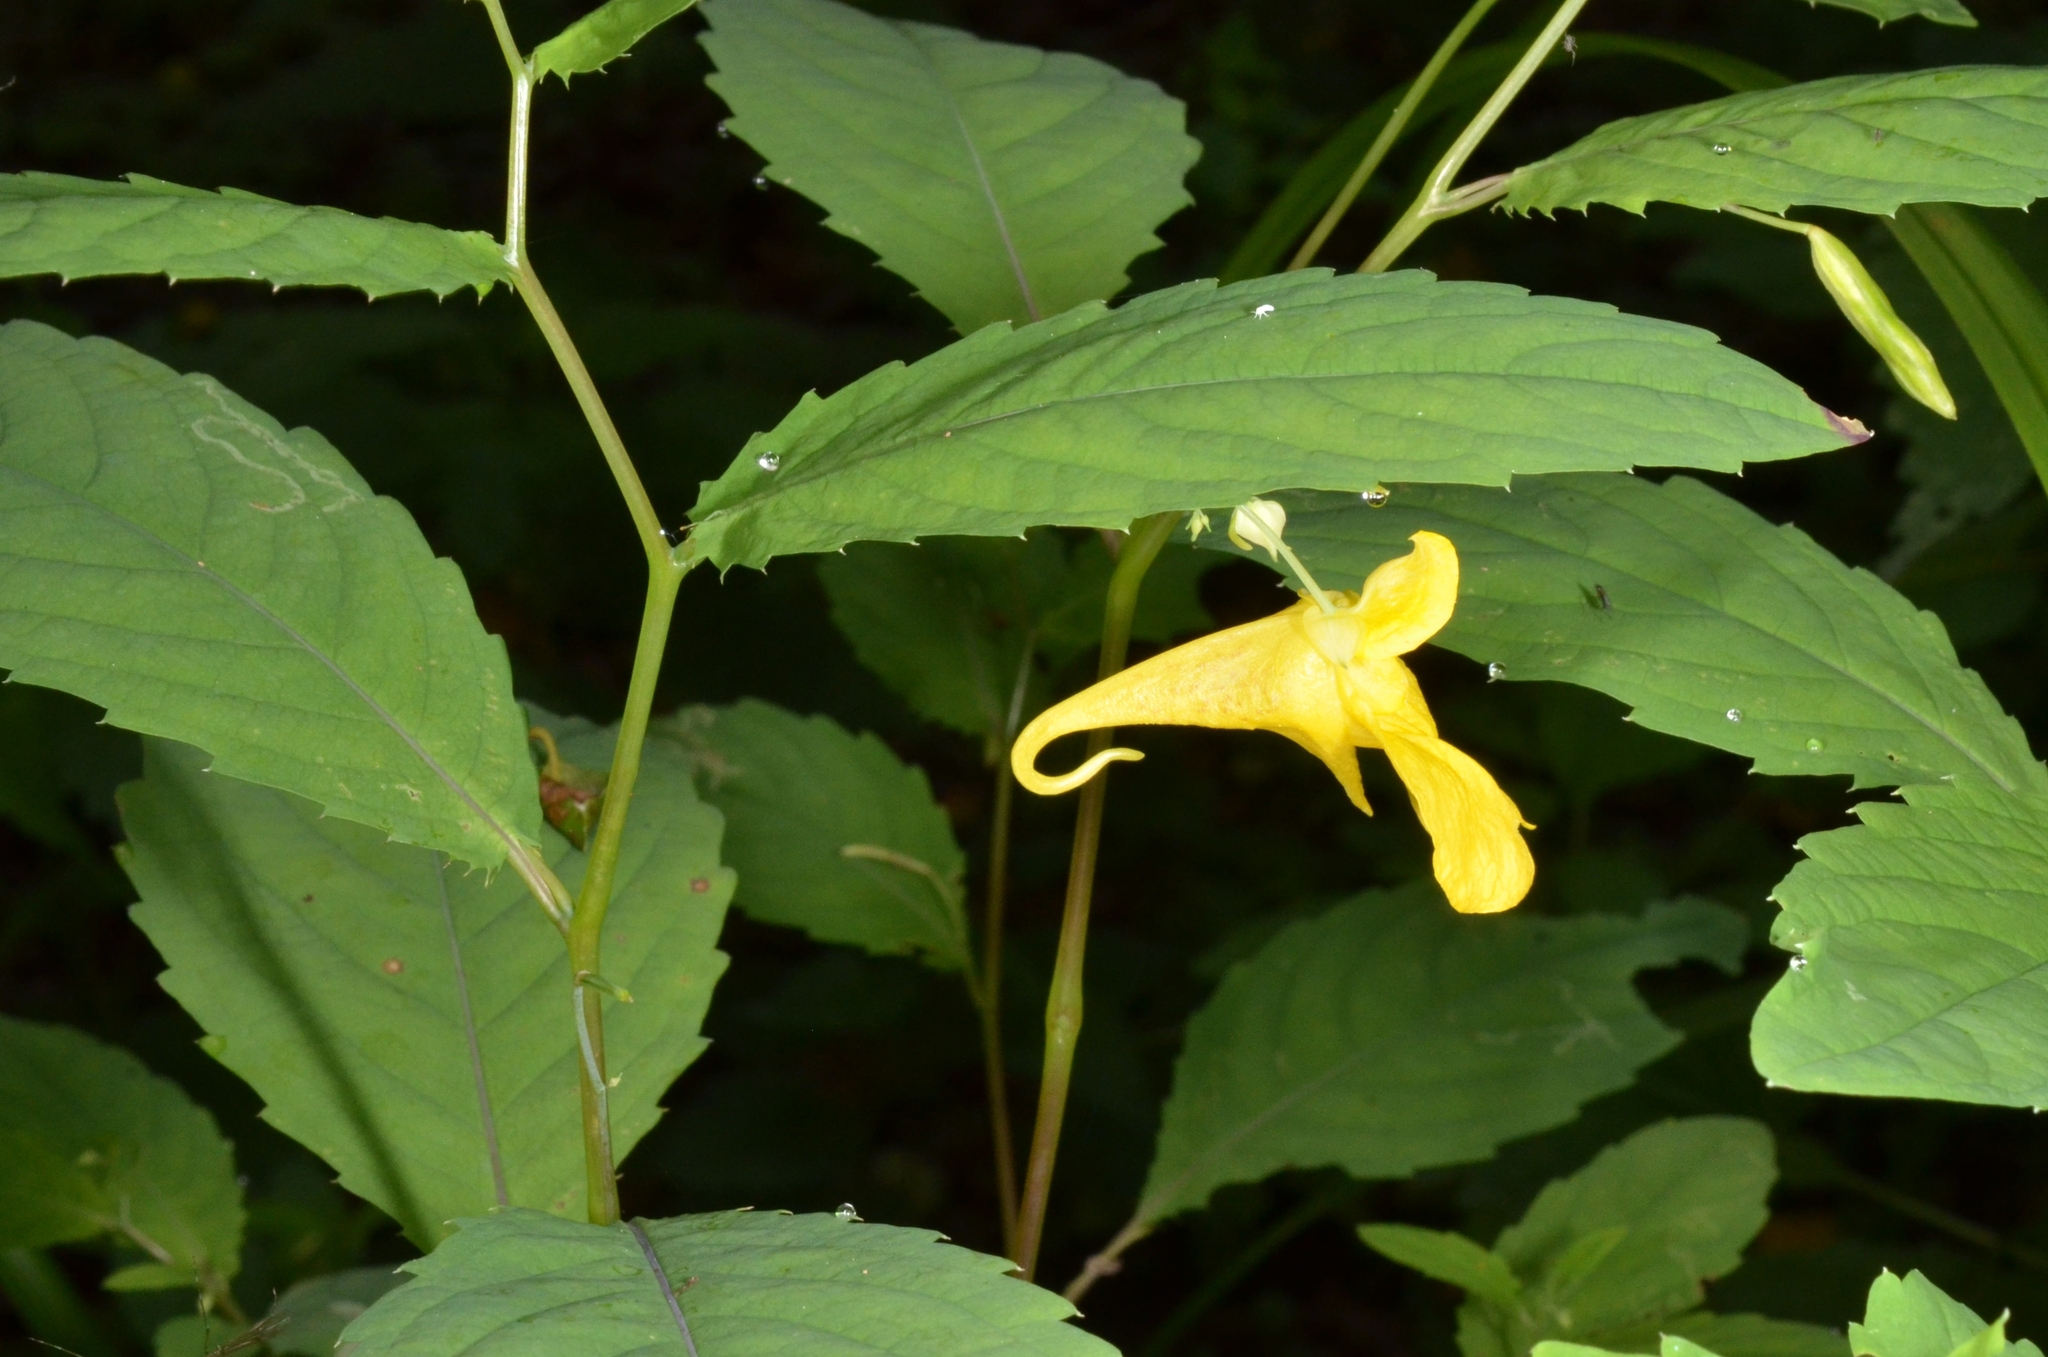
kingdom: Plantae
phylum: Tracheophyta
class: Magnoliopsida
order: Ericales
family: Balsaminaceae
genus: Impatiens
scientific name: Impatiens noli-tangere
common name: Touch-me-not balsam
